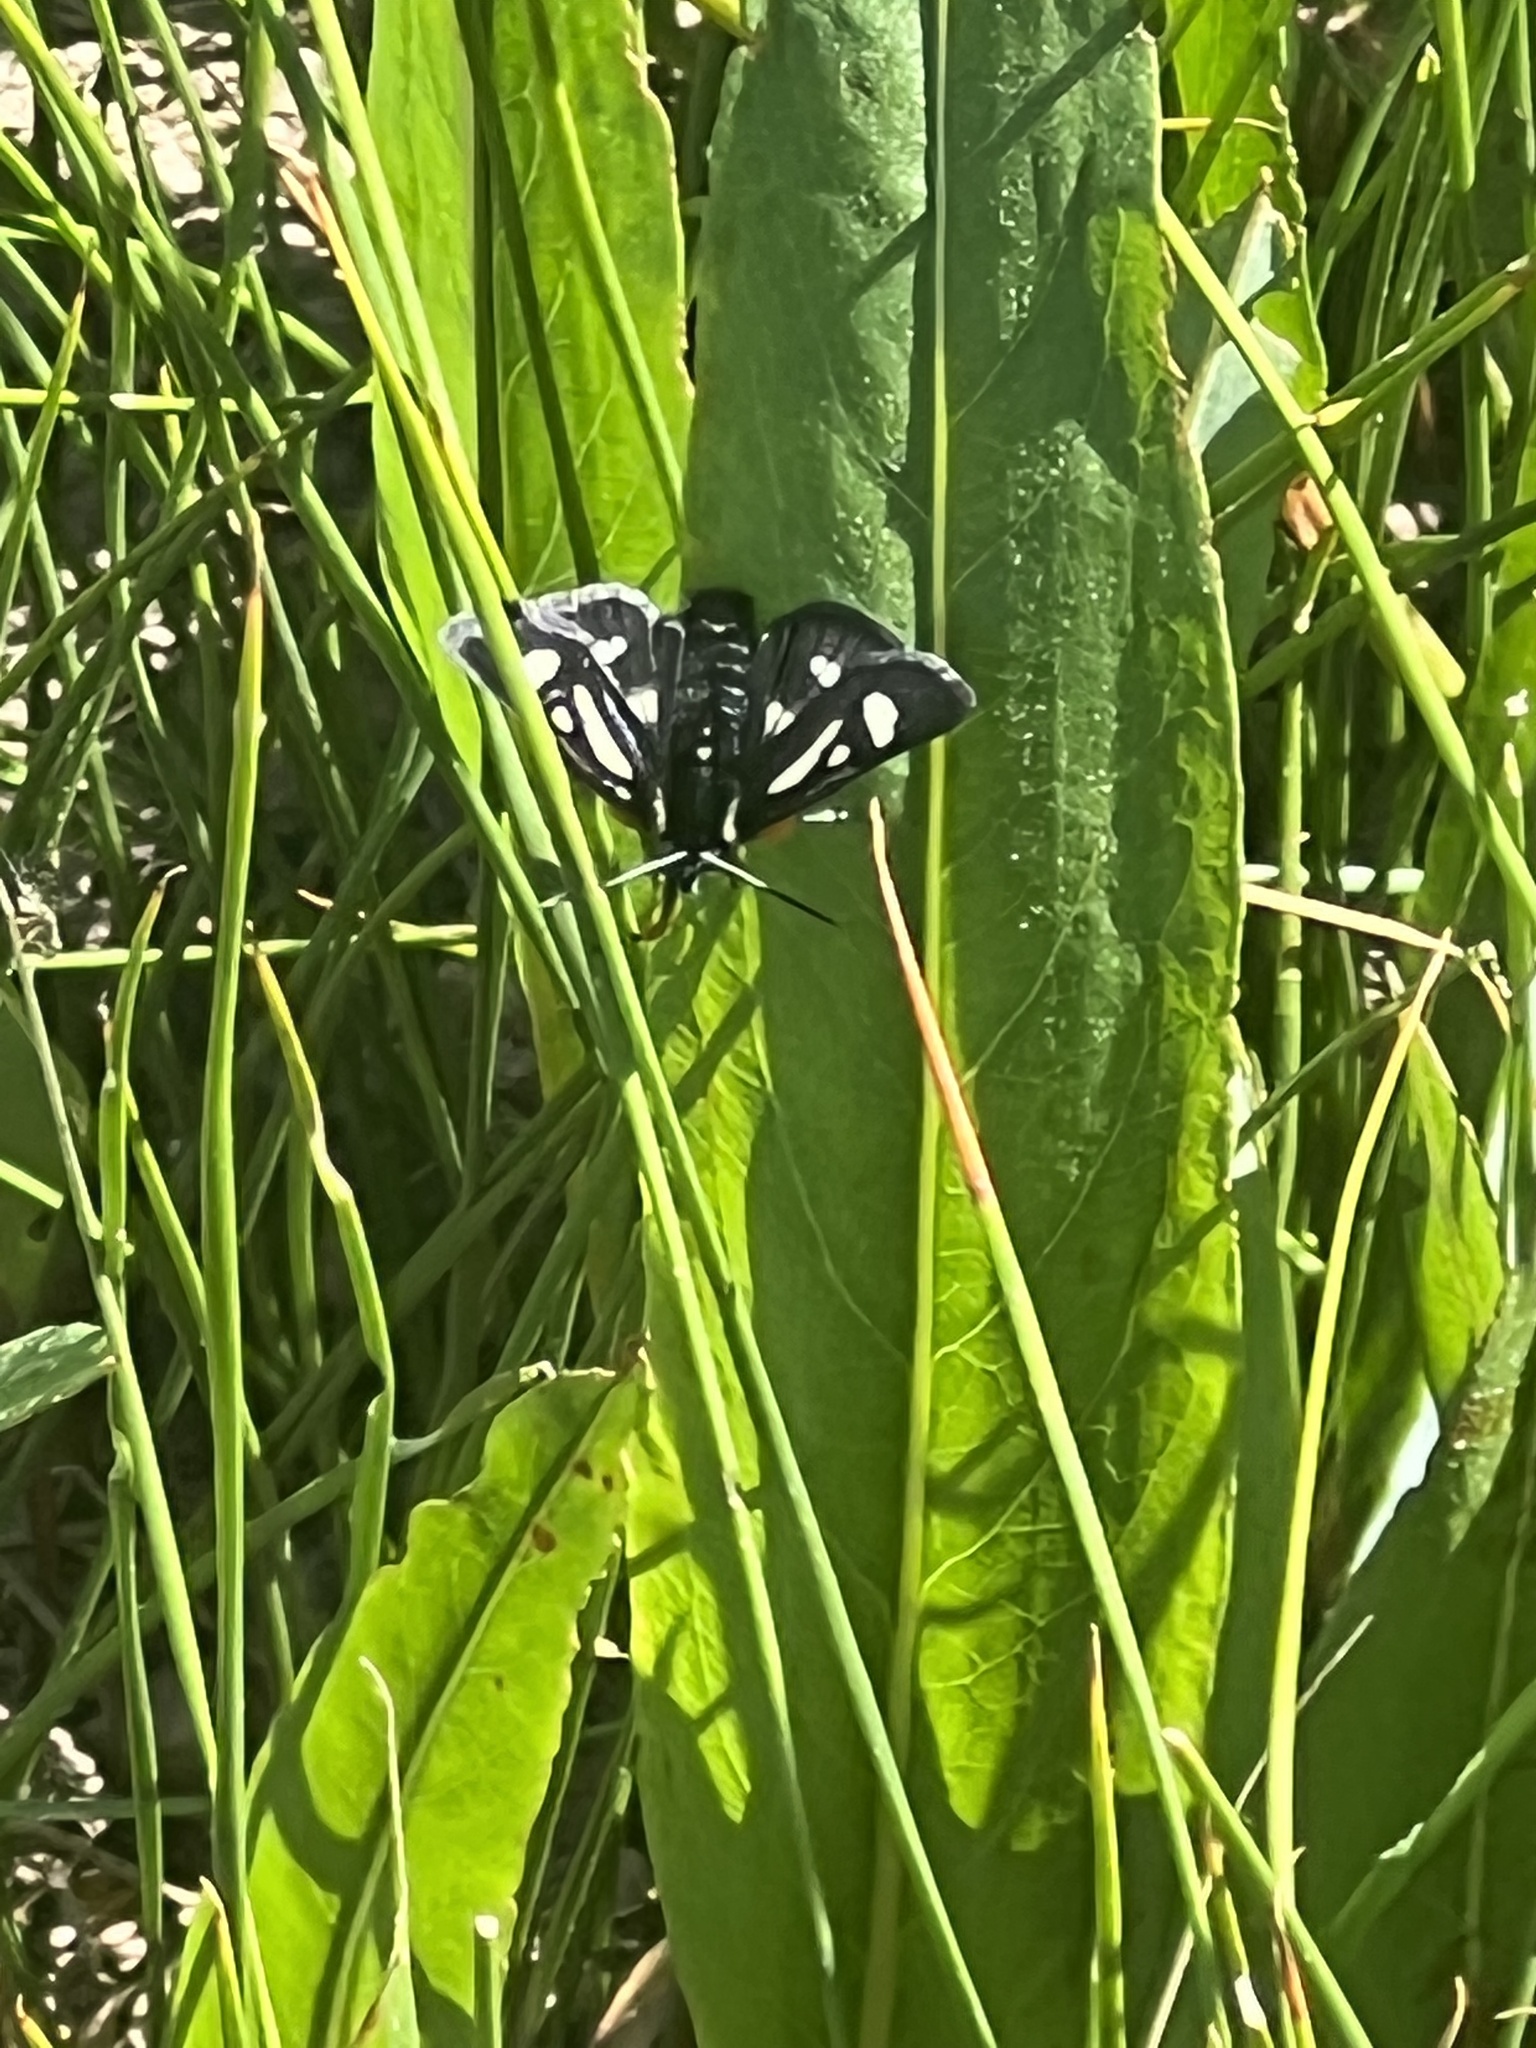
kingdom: Animalia
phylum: Arthropoda
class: Insecta
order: Lepidoptera
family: Noctuidae
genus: Alypia
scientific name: Alypia maccullochii
